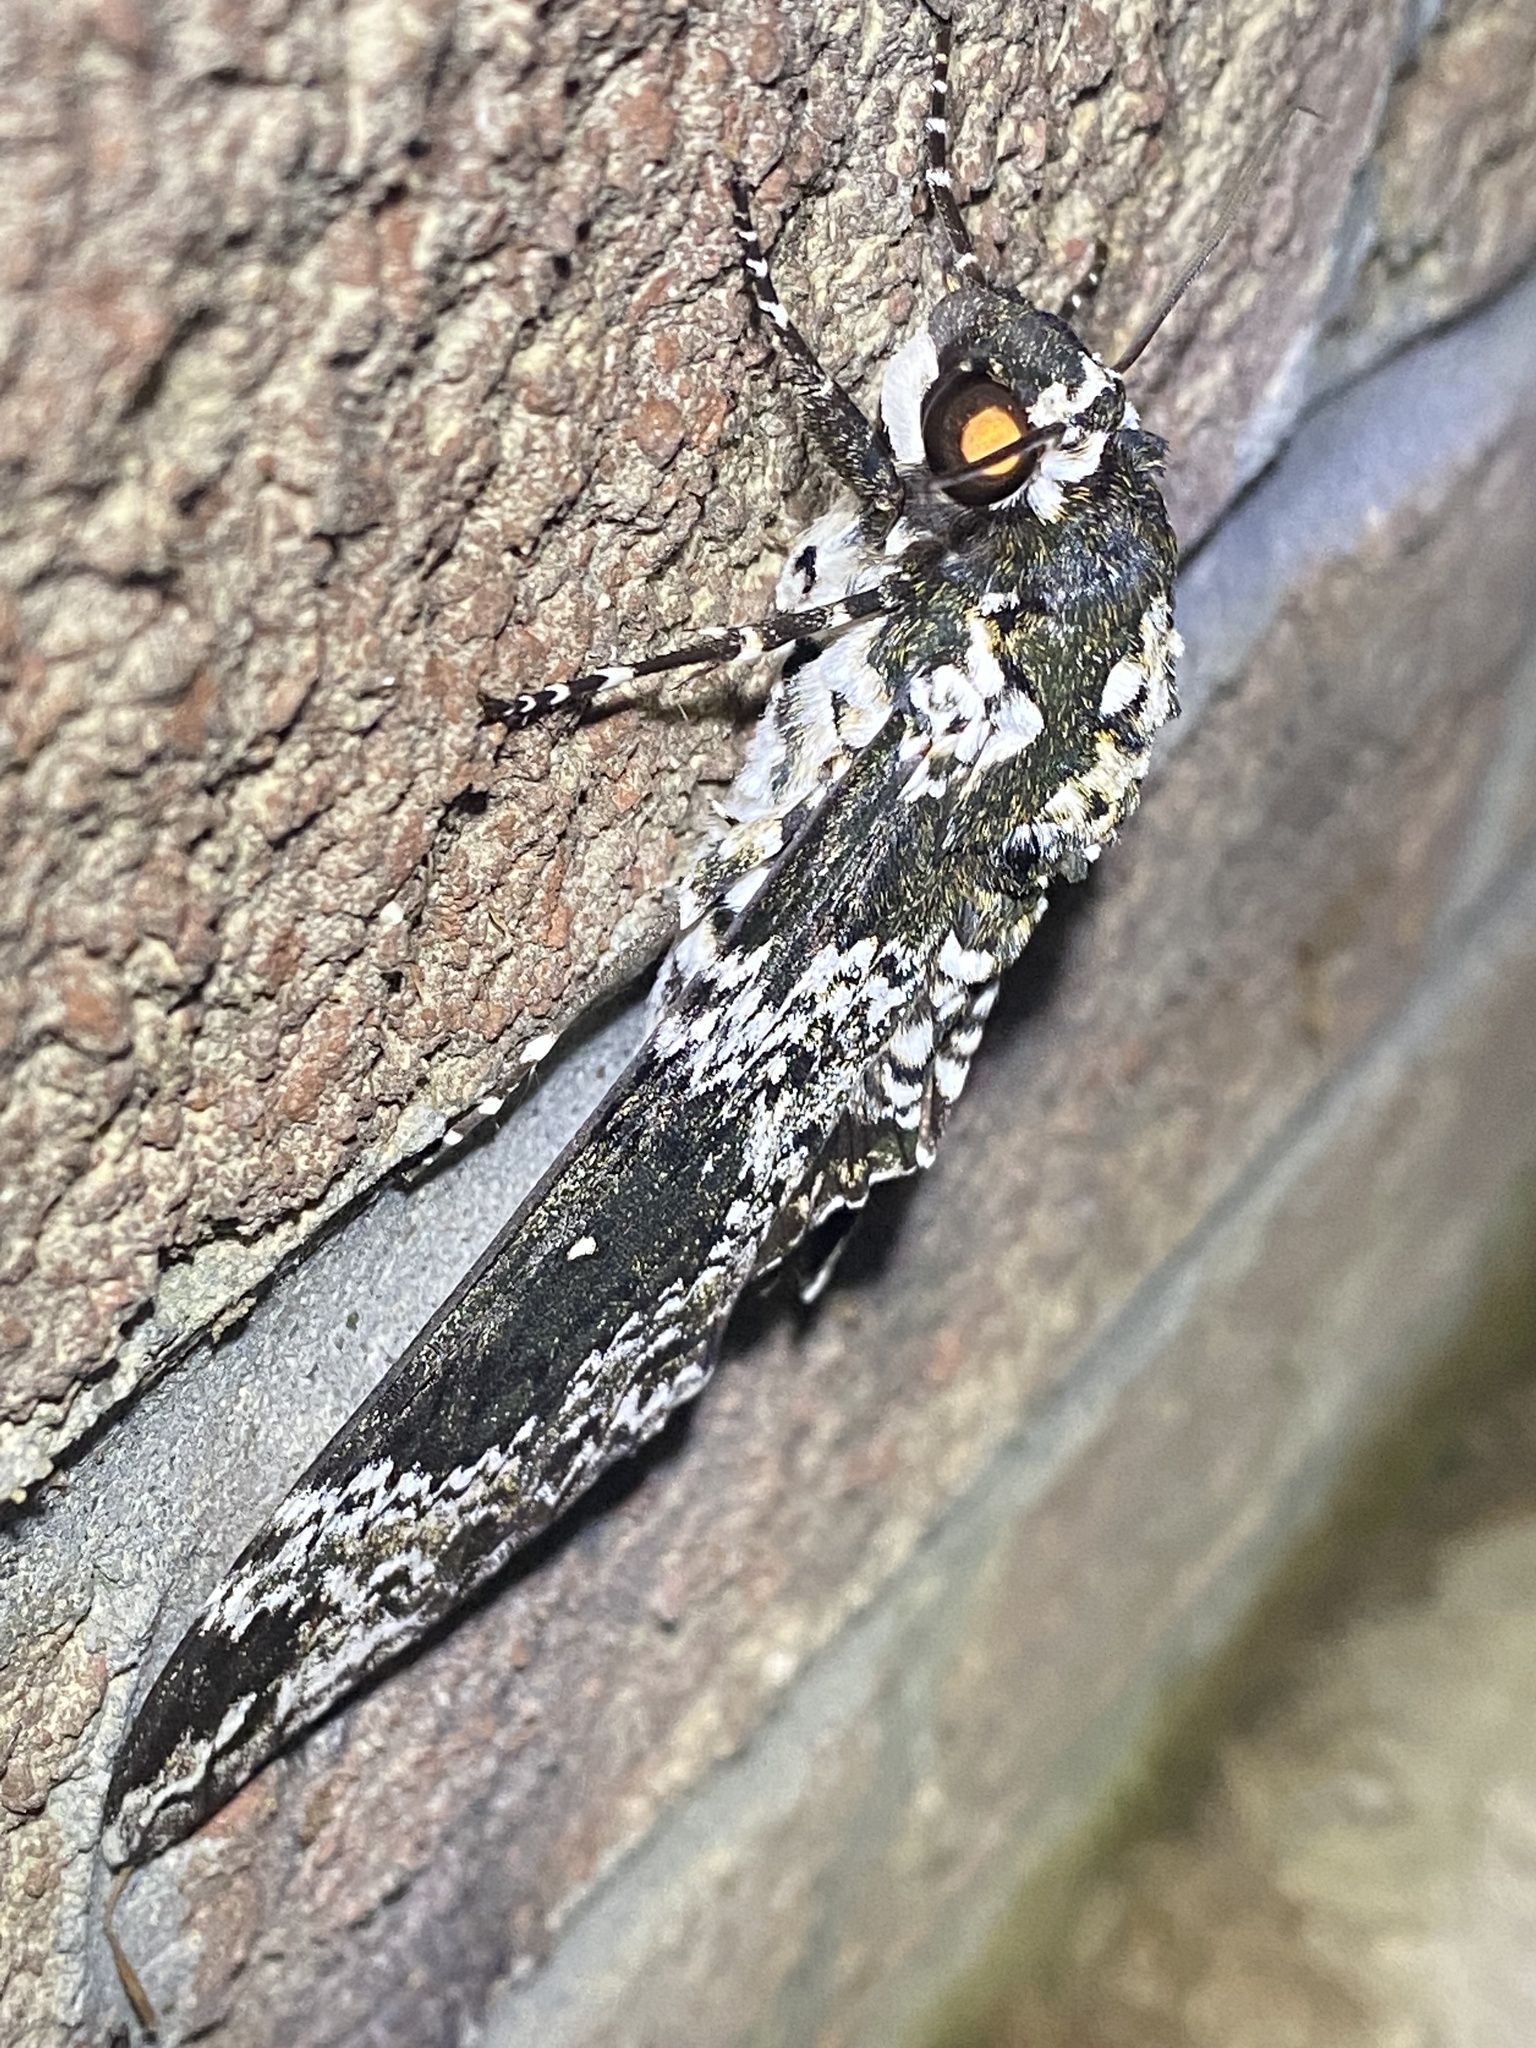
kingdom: Animalia
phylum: Arthropoda
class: Insecta
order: Lepidoptera
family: Sphingidae
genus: Manduca
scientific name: Manduca rustica
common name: Rustic sphinx
